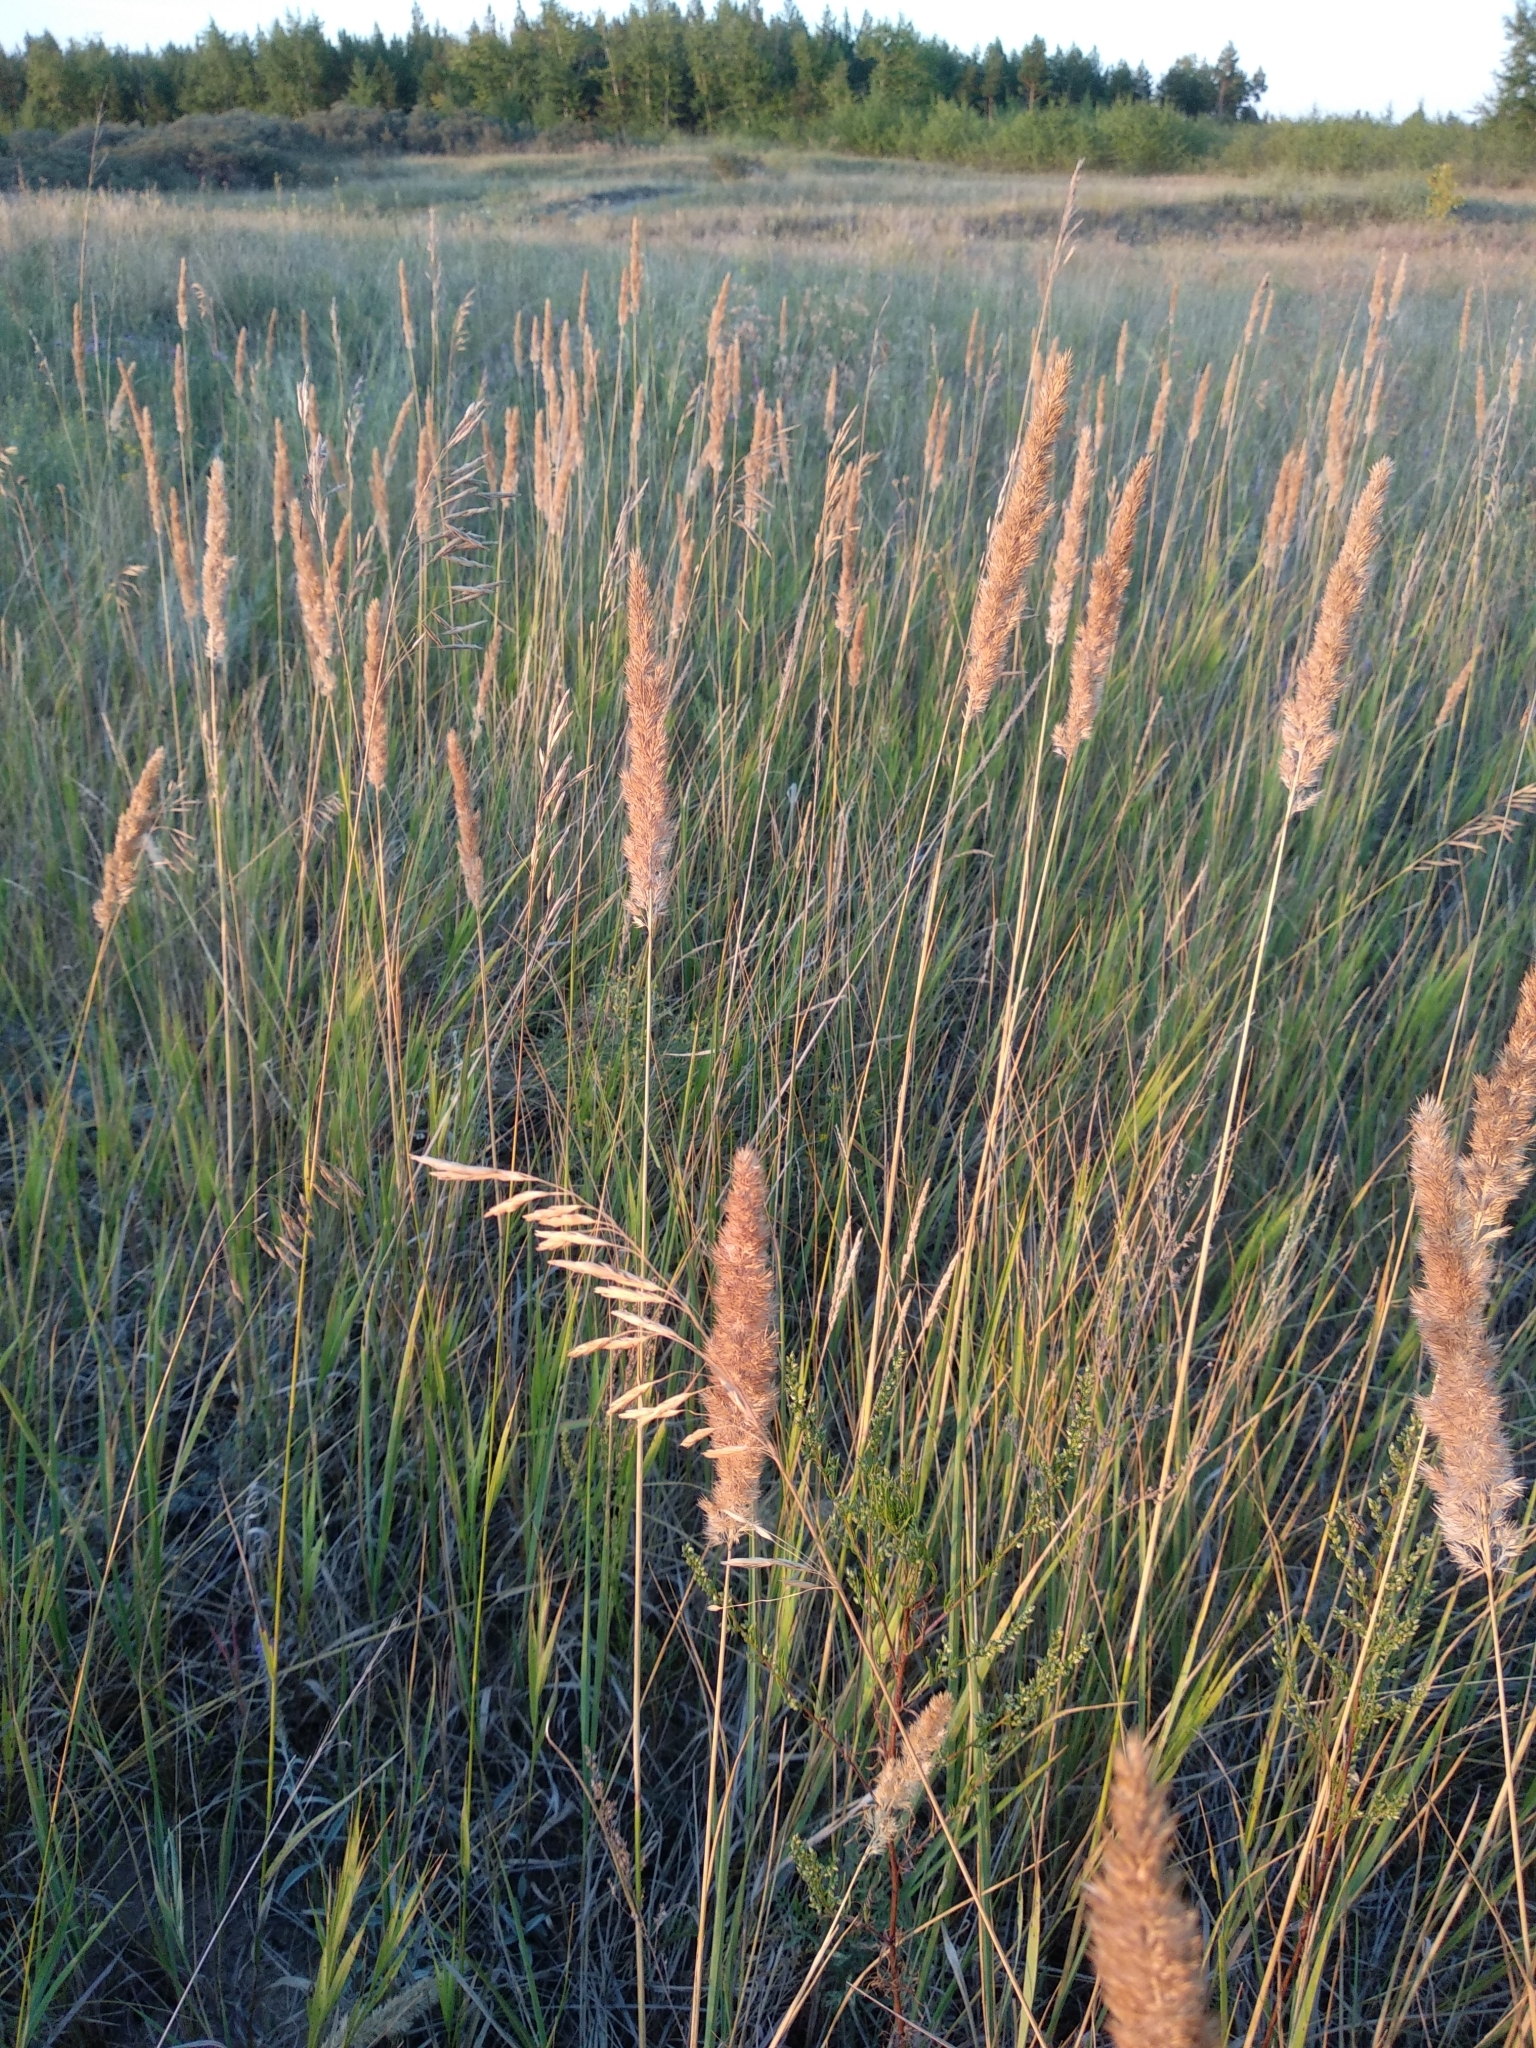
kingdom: Plantae
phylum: Tracheophyta
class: Liliopsida
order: Poales
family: Poaceae
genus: Calamagrostis
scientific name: Calamagrostis epigejos
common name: Wood small-reed
